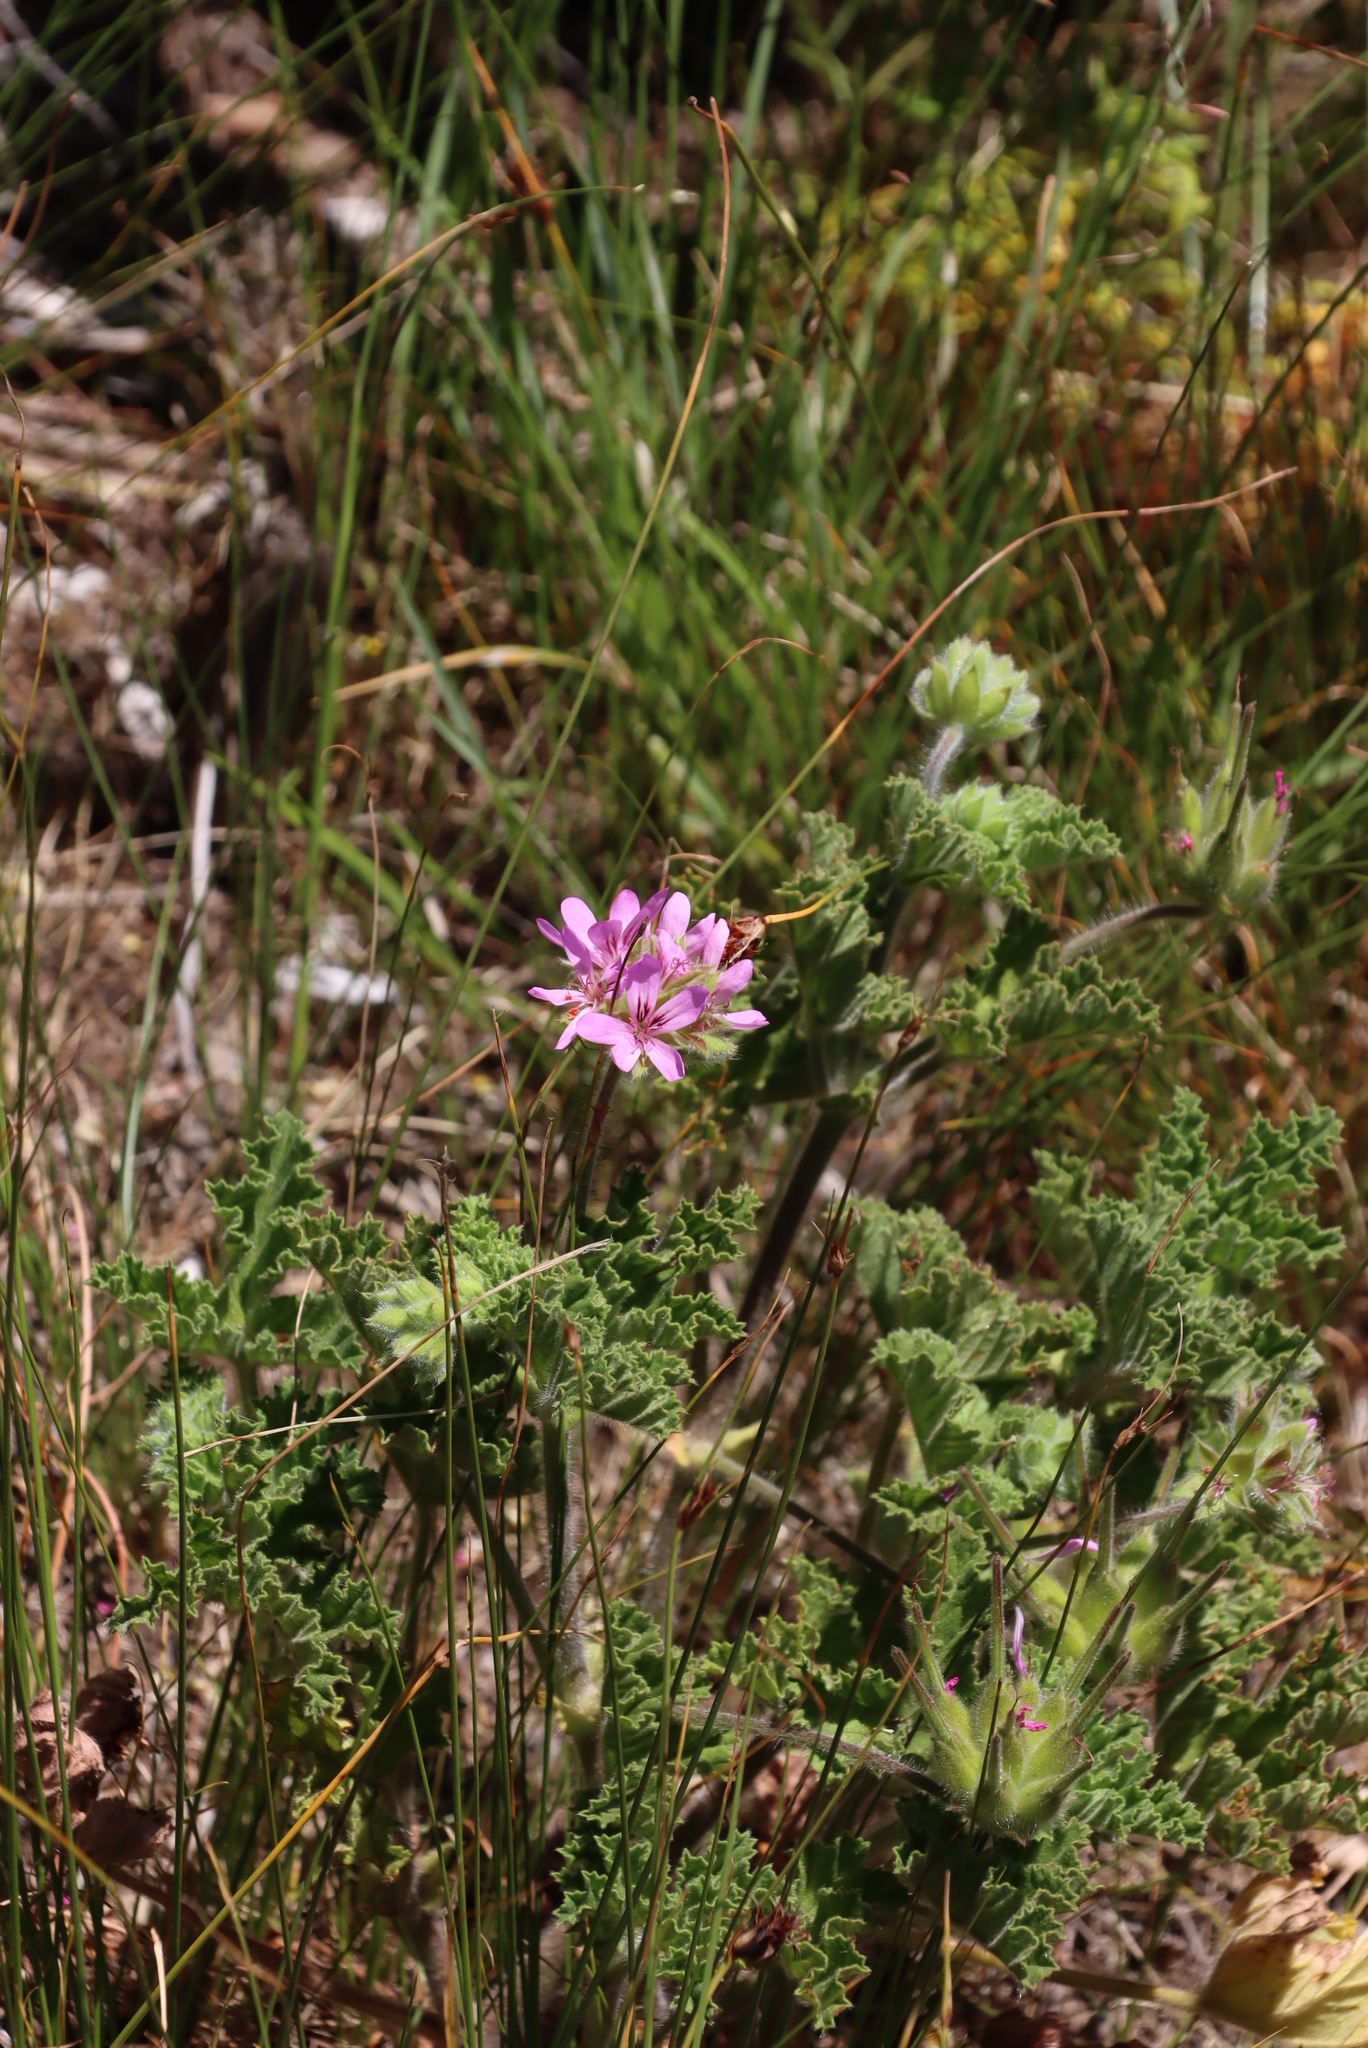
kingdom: Plantae
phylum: Tracheophyta
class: Magnoliopsida
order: Geraniales
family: Geraniaceae
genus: Pelargonium
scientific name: Pelargonium capitatum
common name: Rose scented geranium
